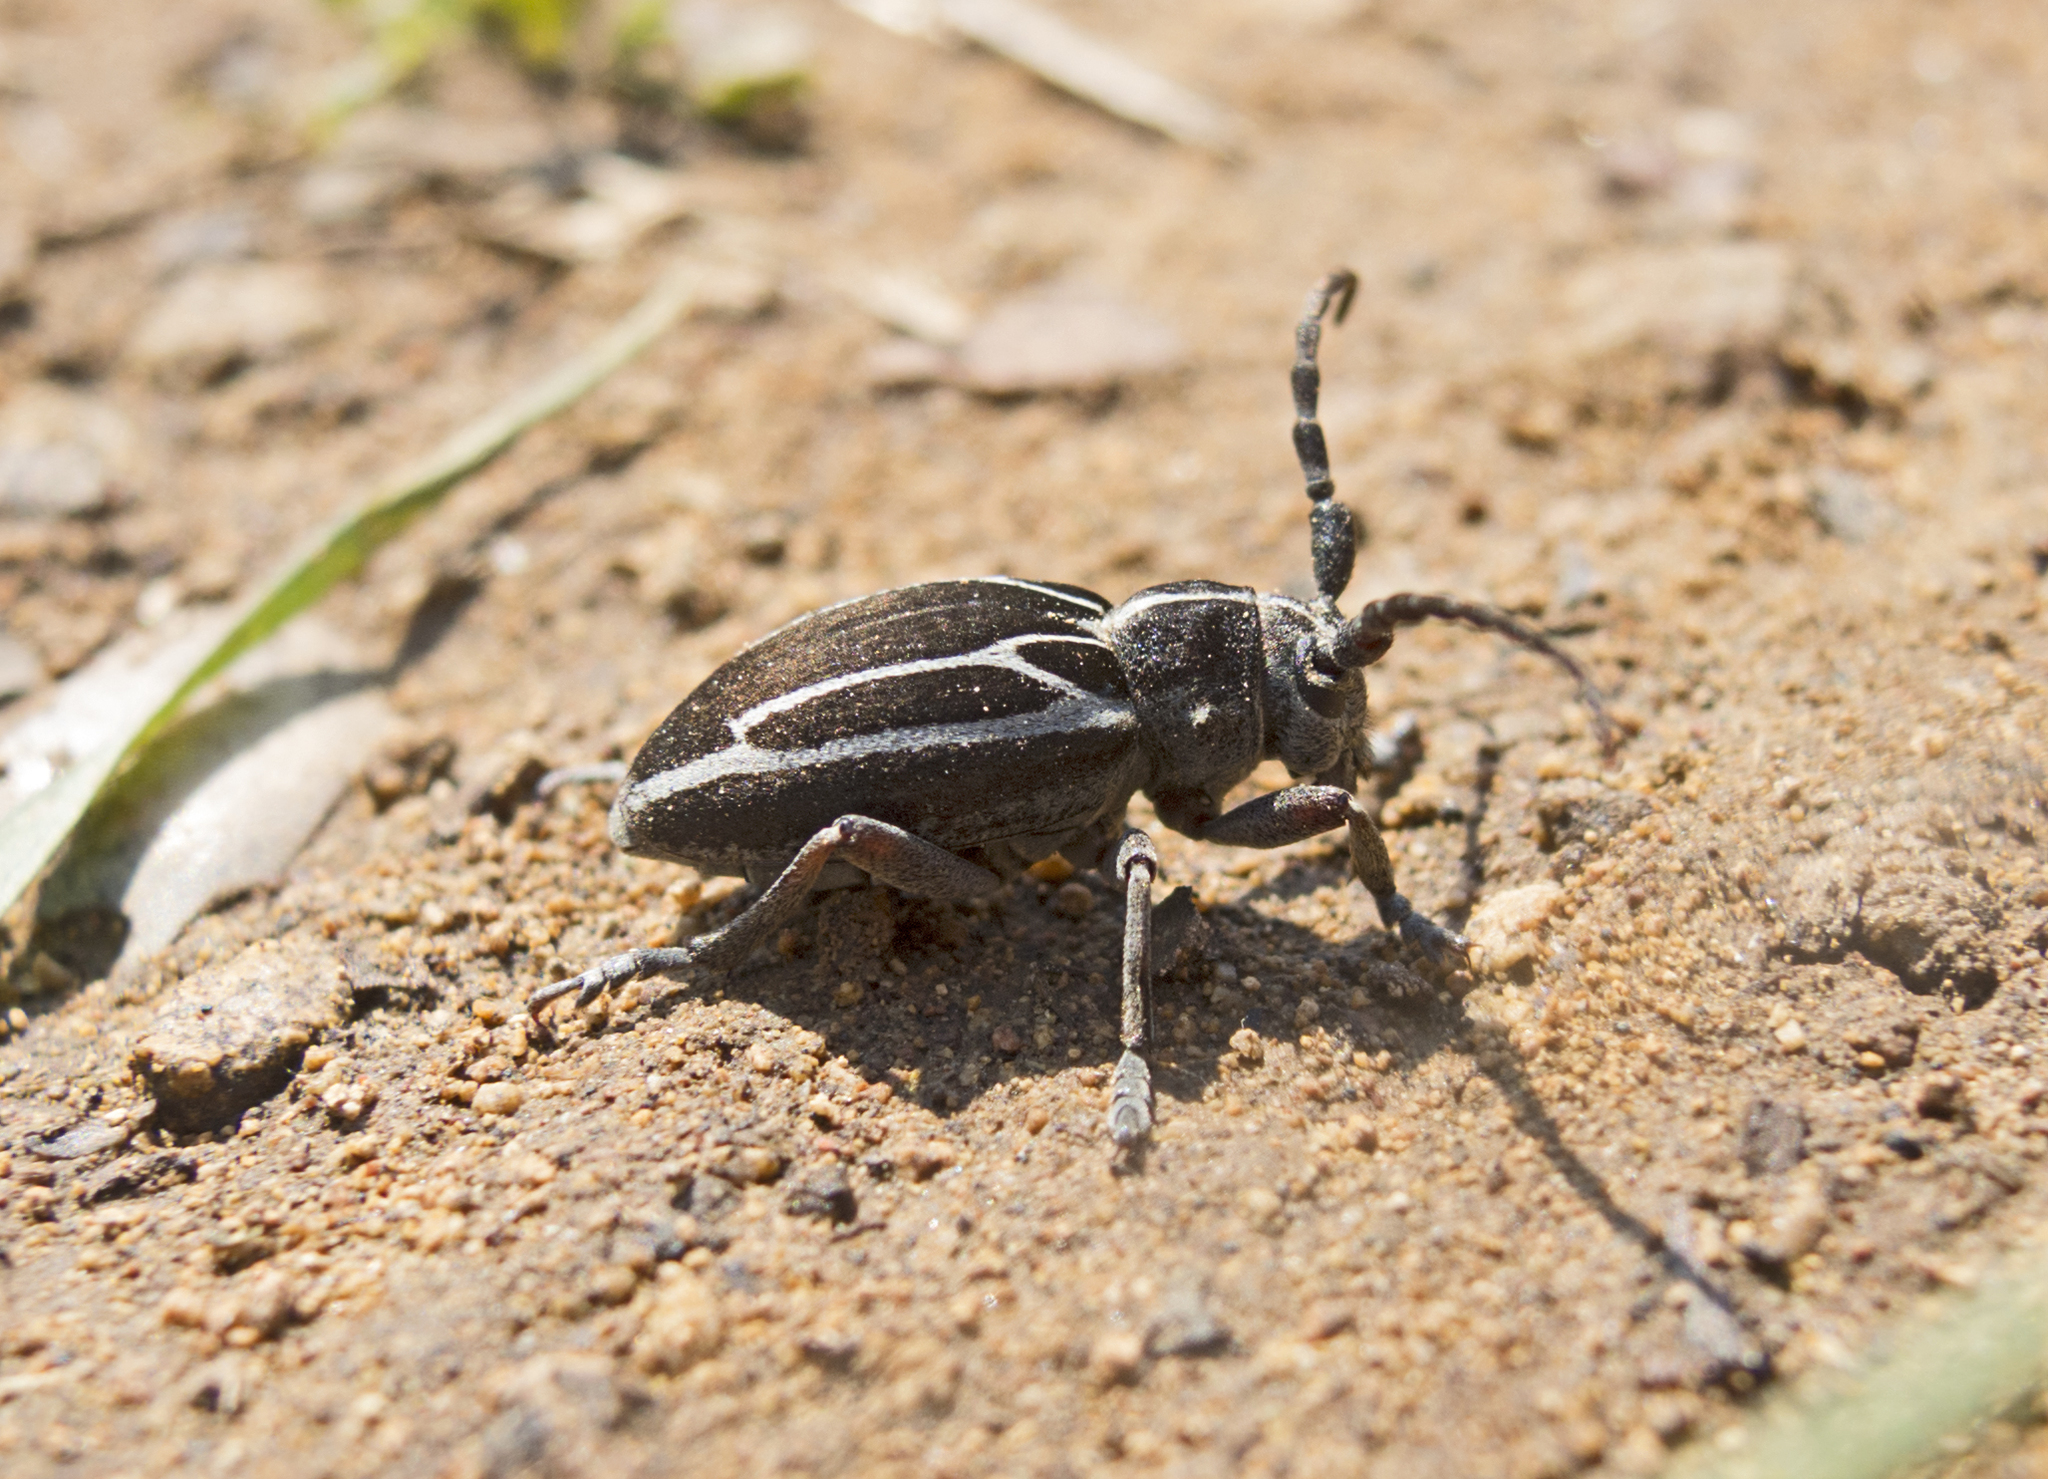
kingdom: Animalia
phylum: Arthropoda
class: Insecta
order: Coleoptera
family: Cerambycidae
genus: Neodorcadion
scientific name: Neodorcadion exornatum
